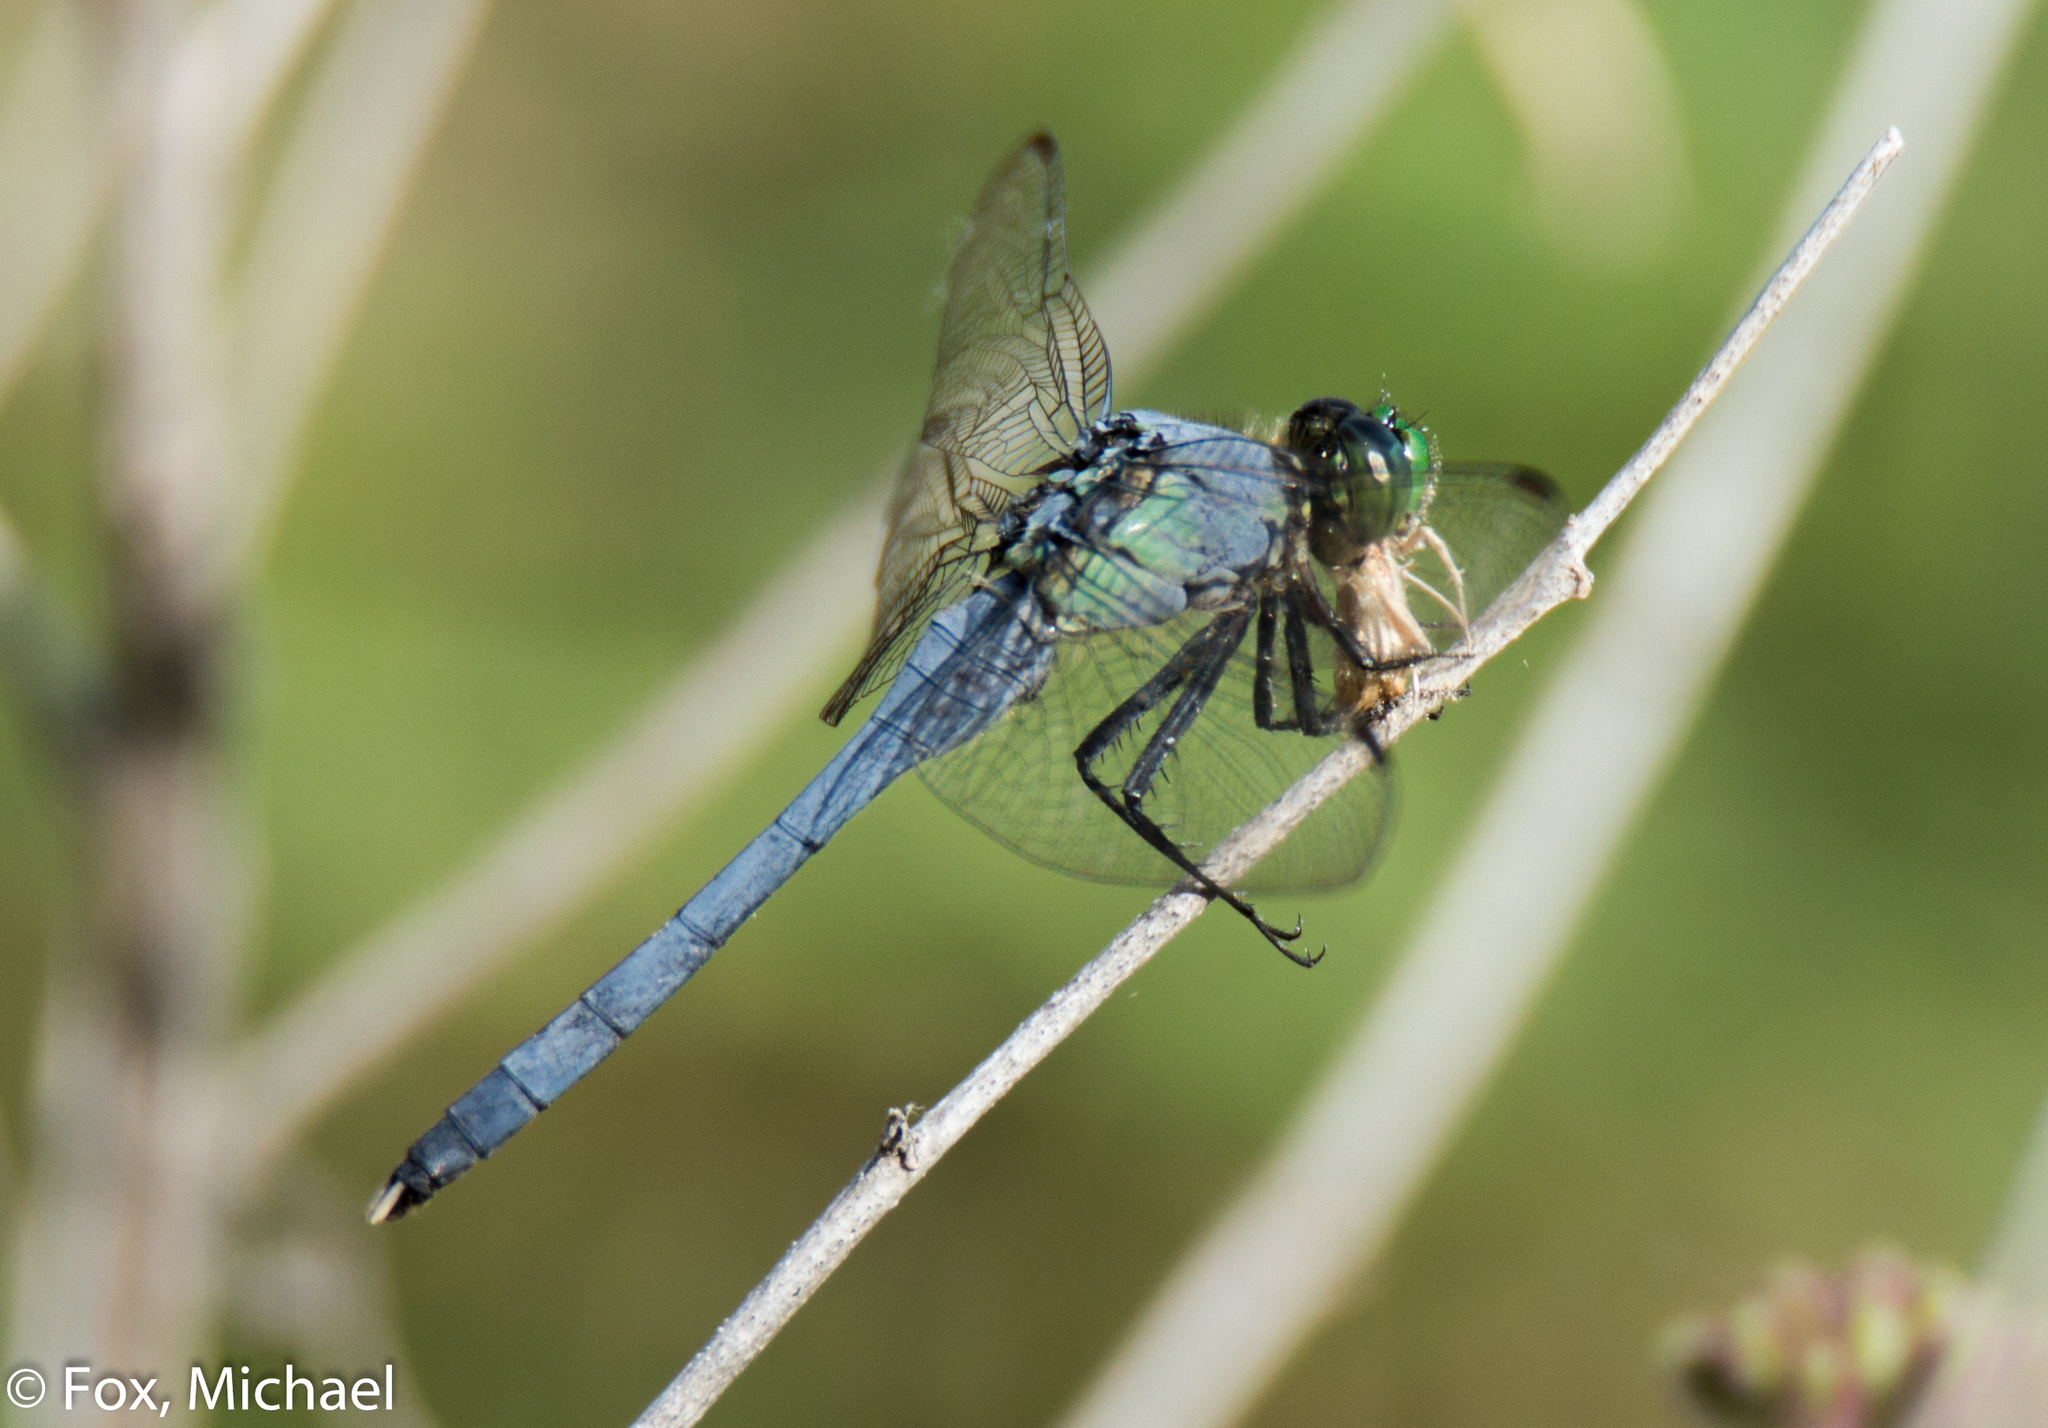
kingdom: Animalia
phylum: Arthropoda
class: Insecta
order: Odonata
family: Libellulidae
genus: Erythemis
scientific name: Erythemis simplicicollis
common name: Eastern pondhawk
